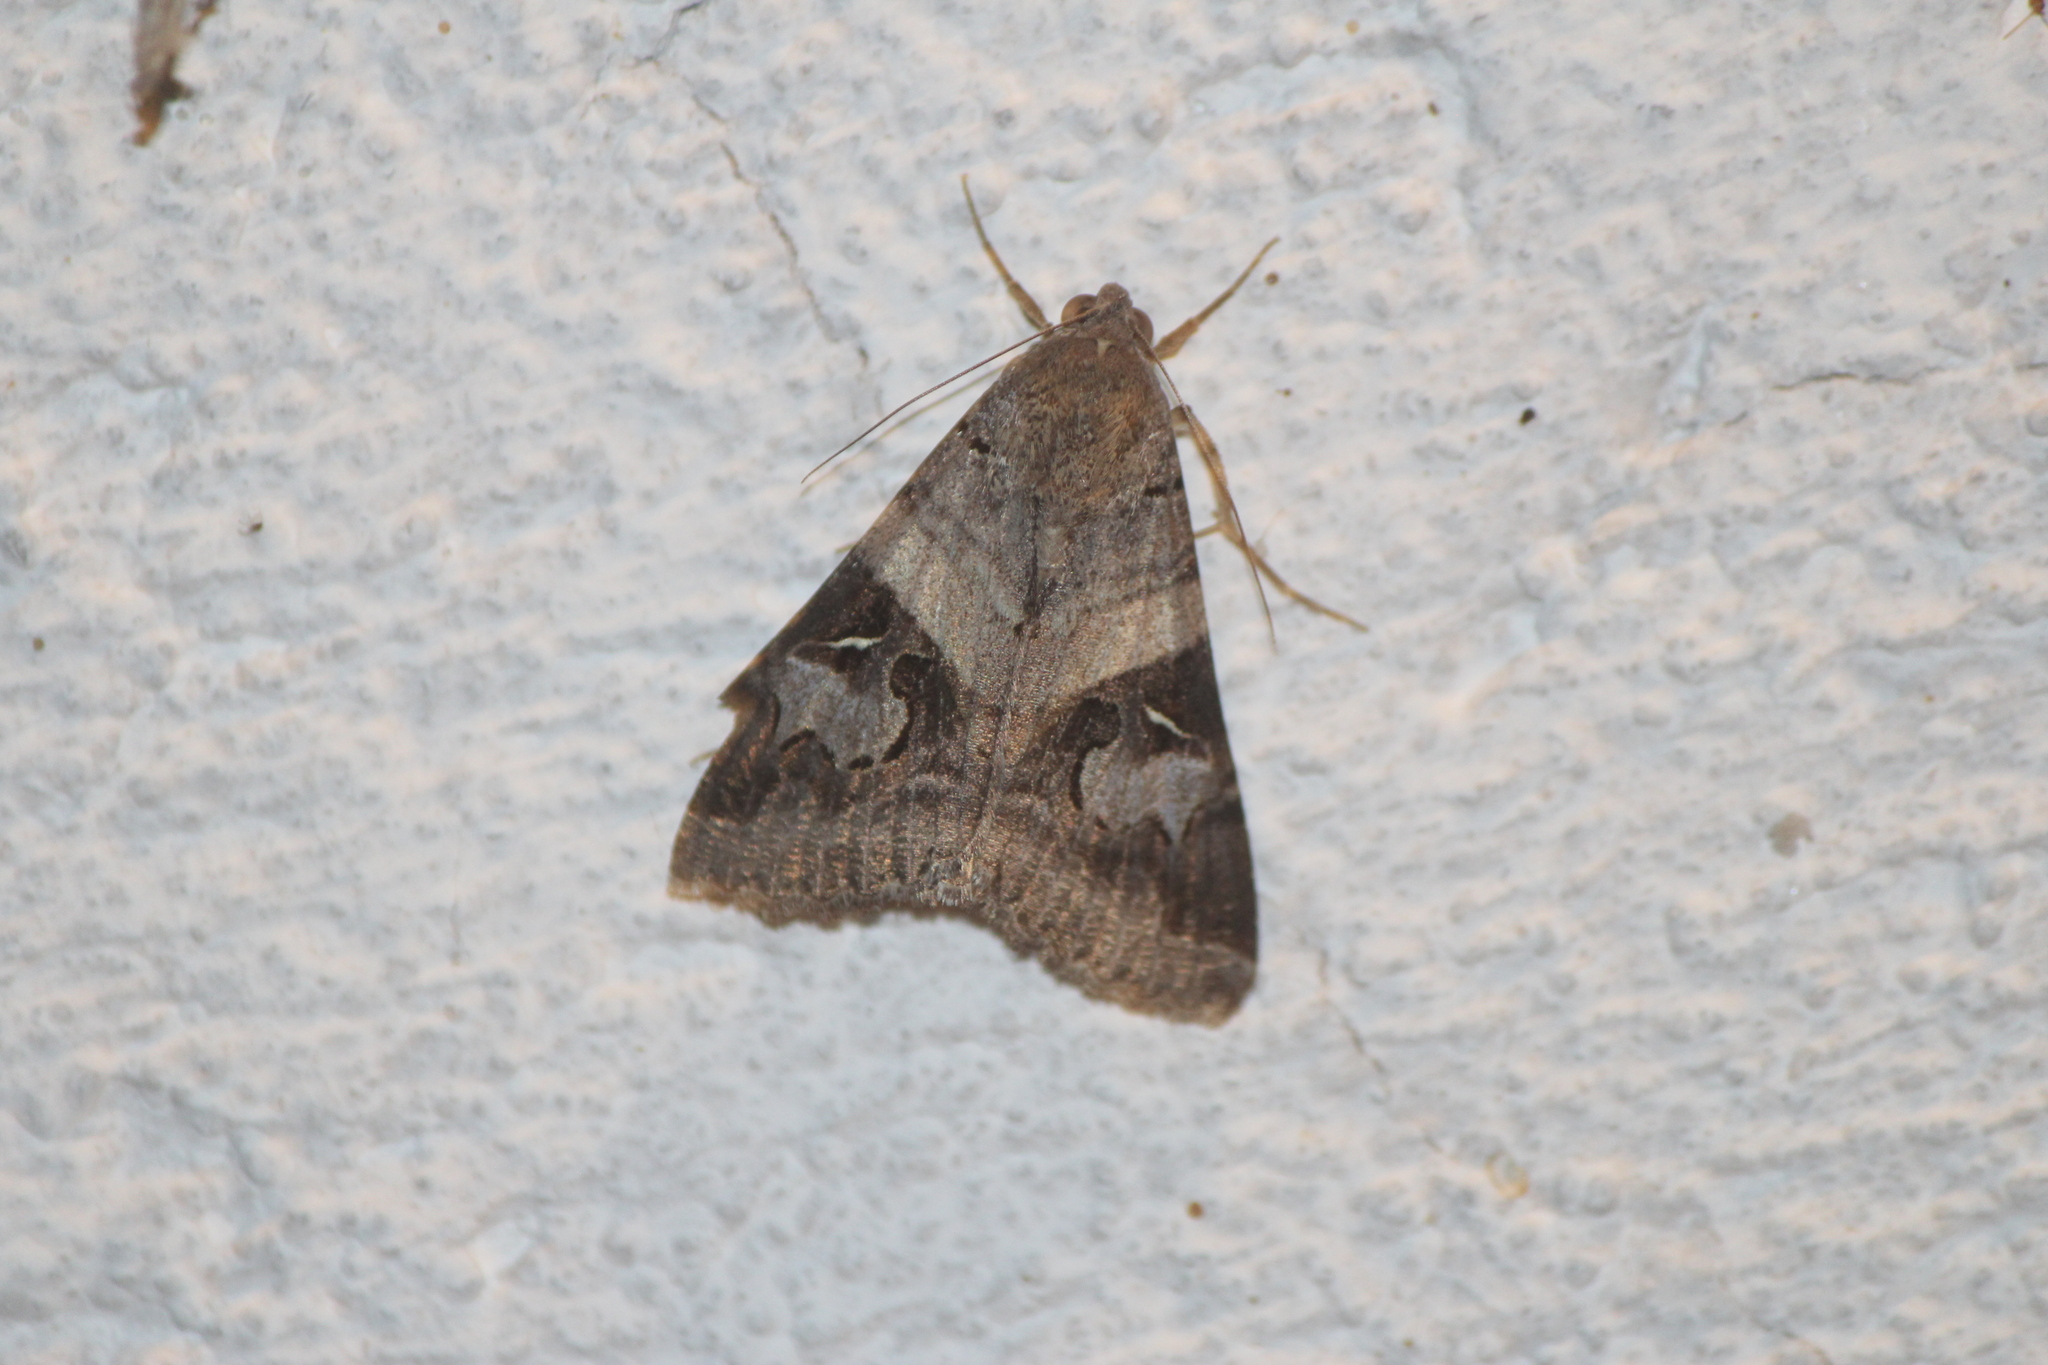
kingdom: Animalia
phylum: Arthropoda
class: Insecta
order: Lepidoptera
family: Erebidae
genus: Melipotis
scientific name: Melipotis indomita
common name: Moth
